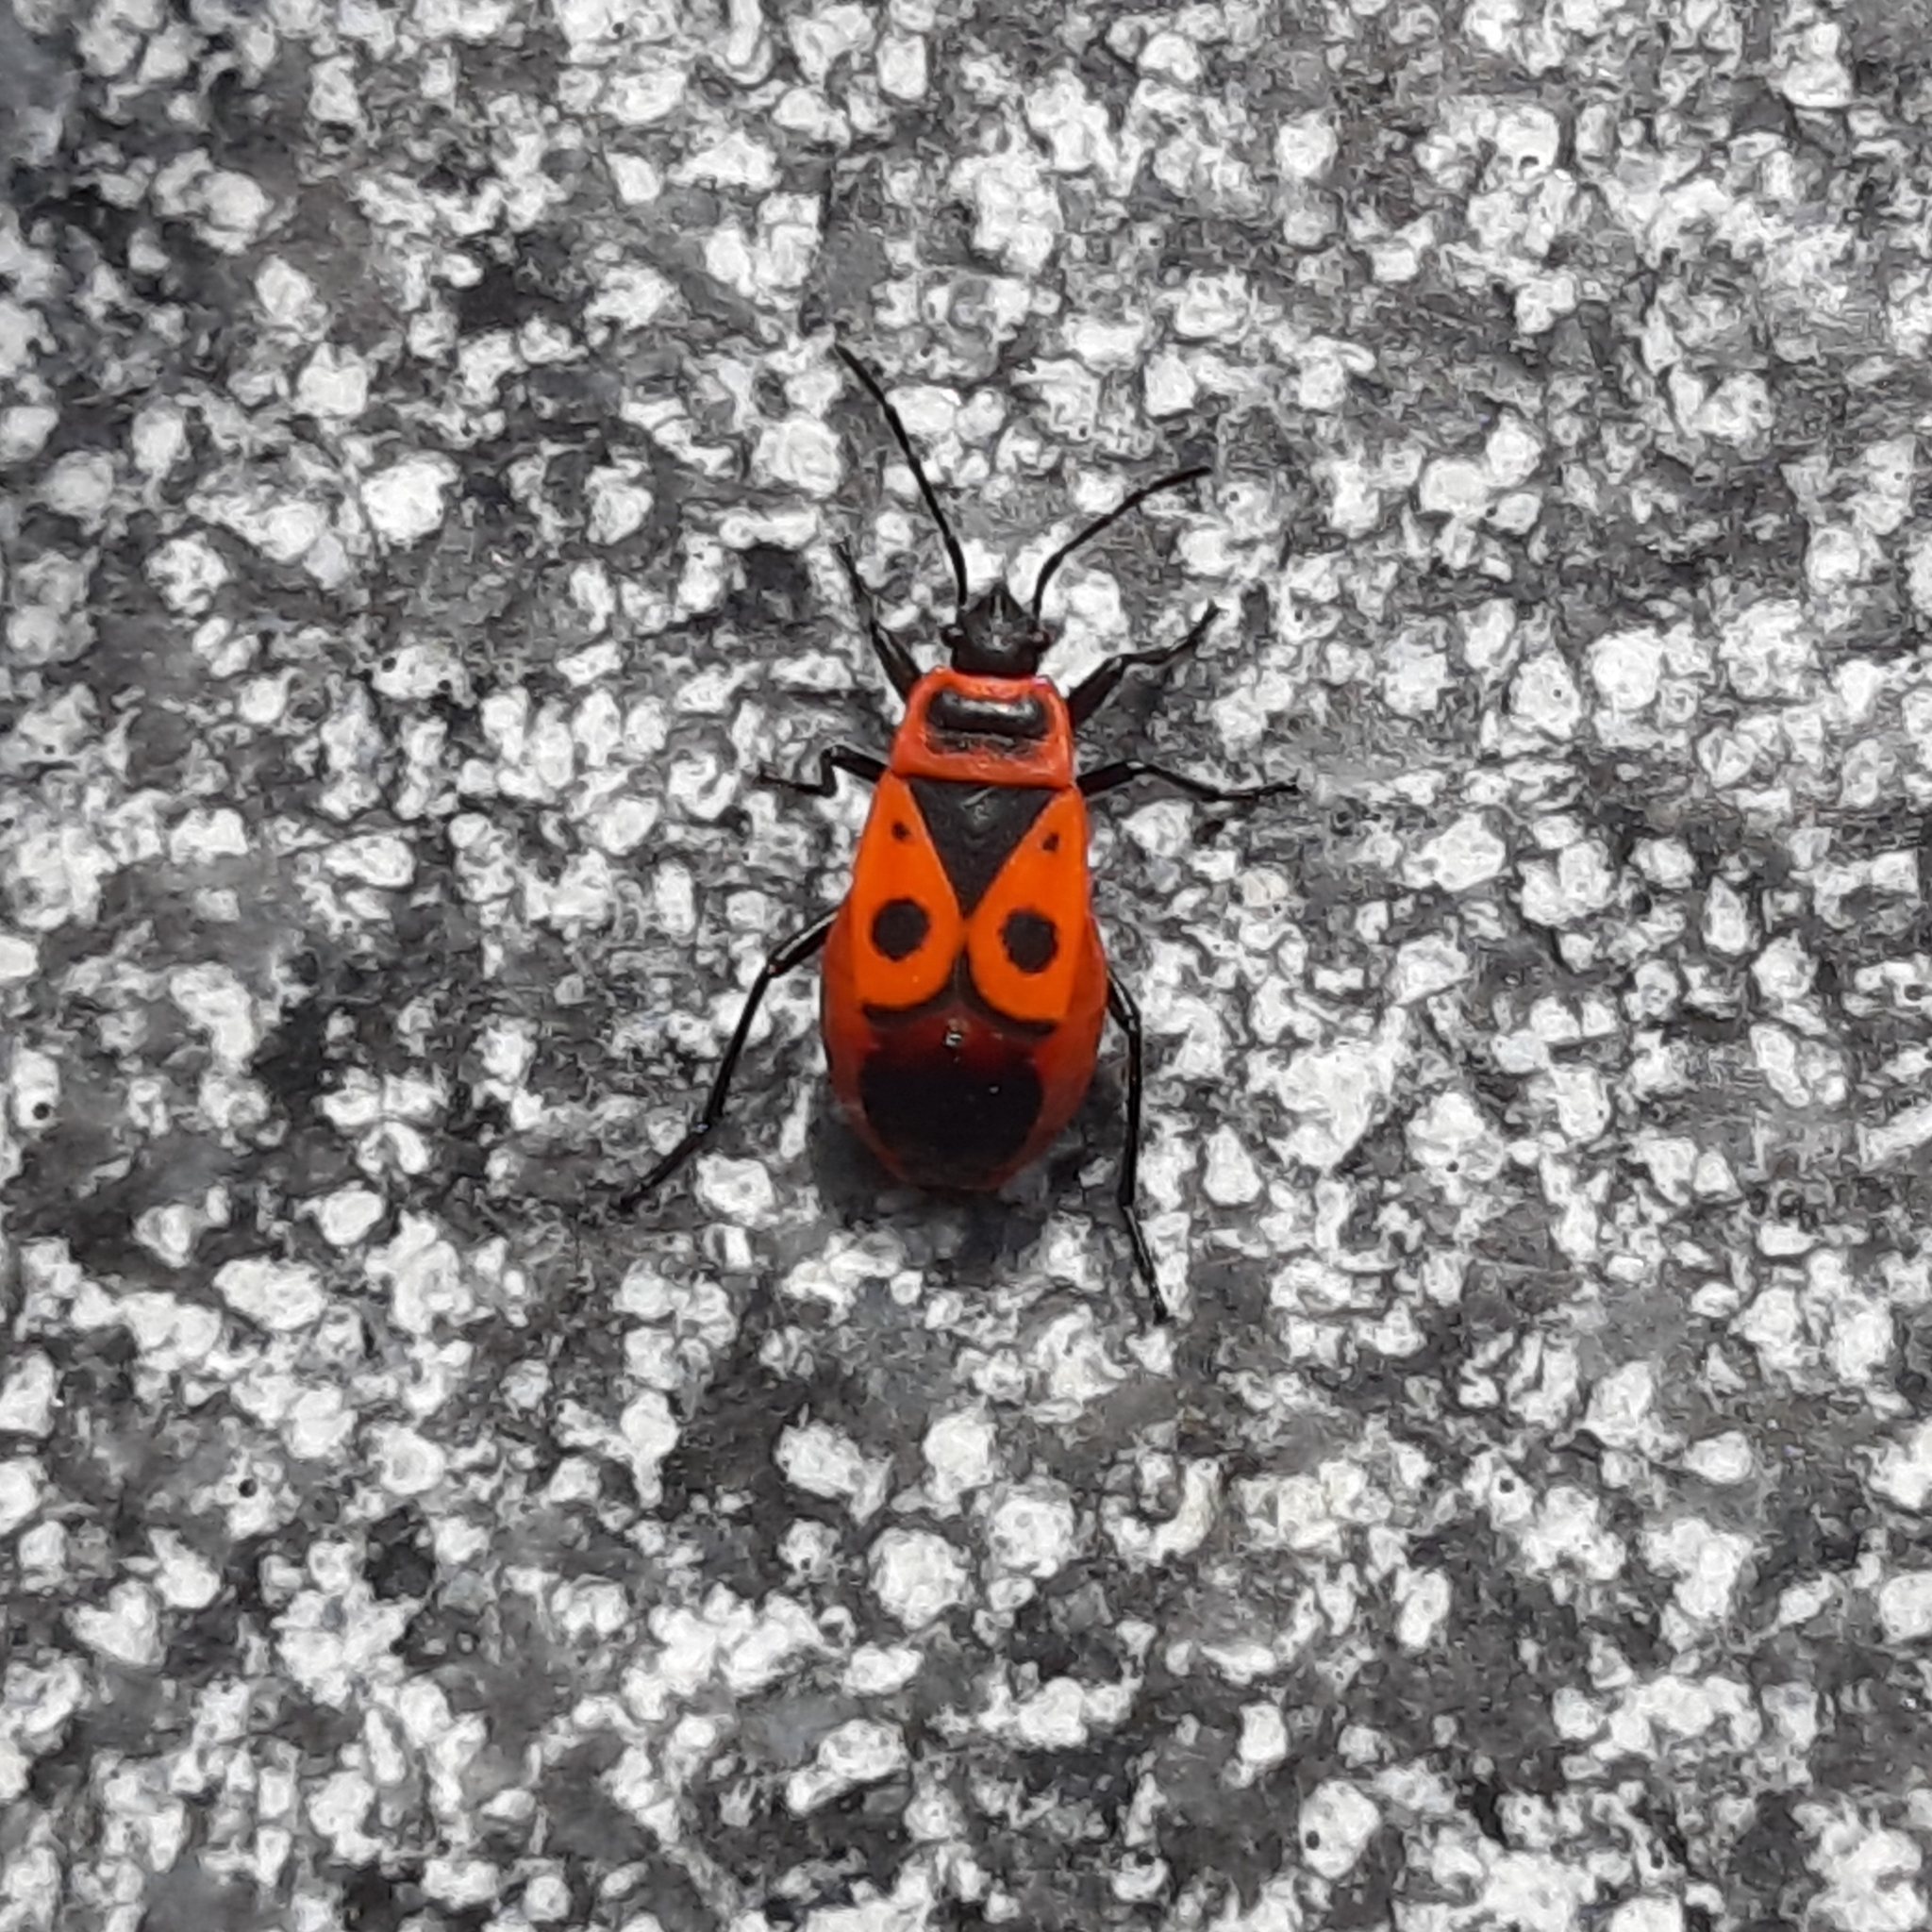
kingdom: Animalia
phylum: Arthropoda
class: Insecta
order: Hemiptera
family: Pyrrhocoridae
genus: Pyrrhocoris
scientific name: Pyrrhocoris apterus
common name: Firebug
